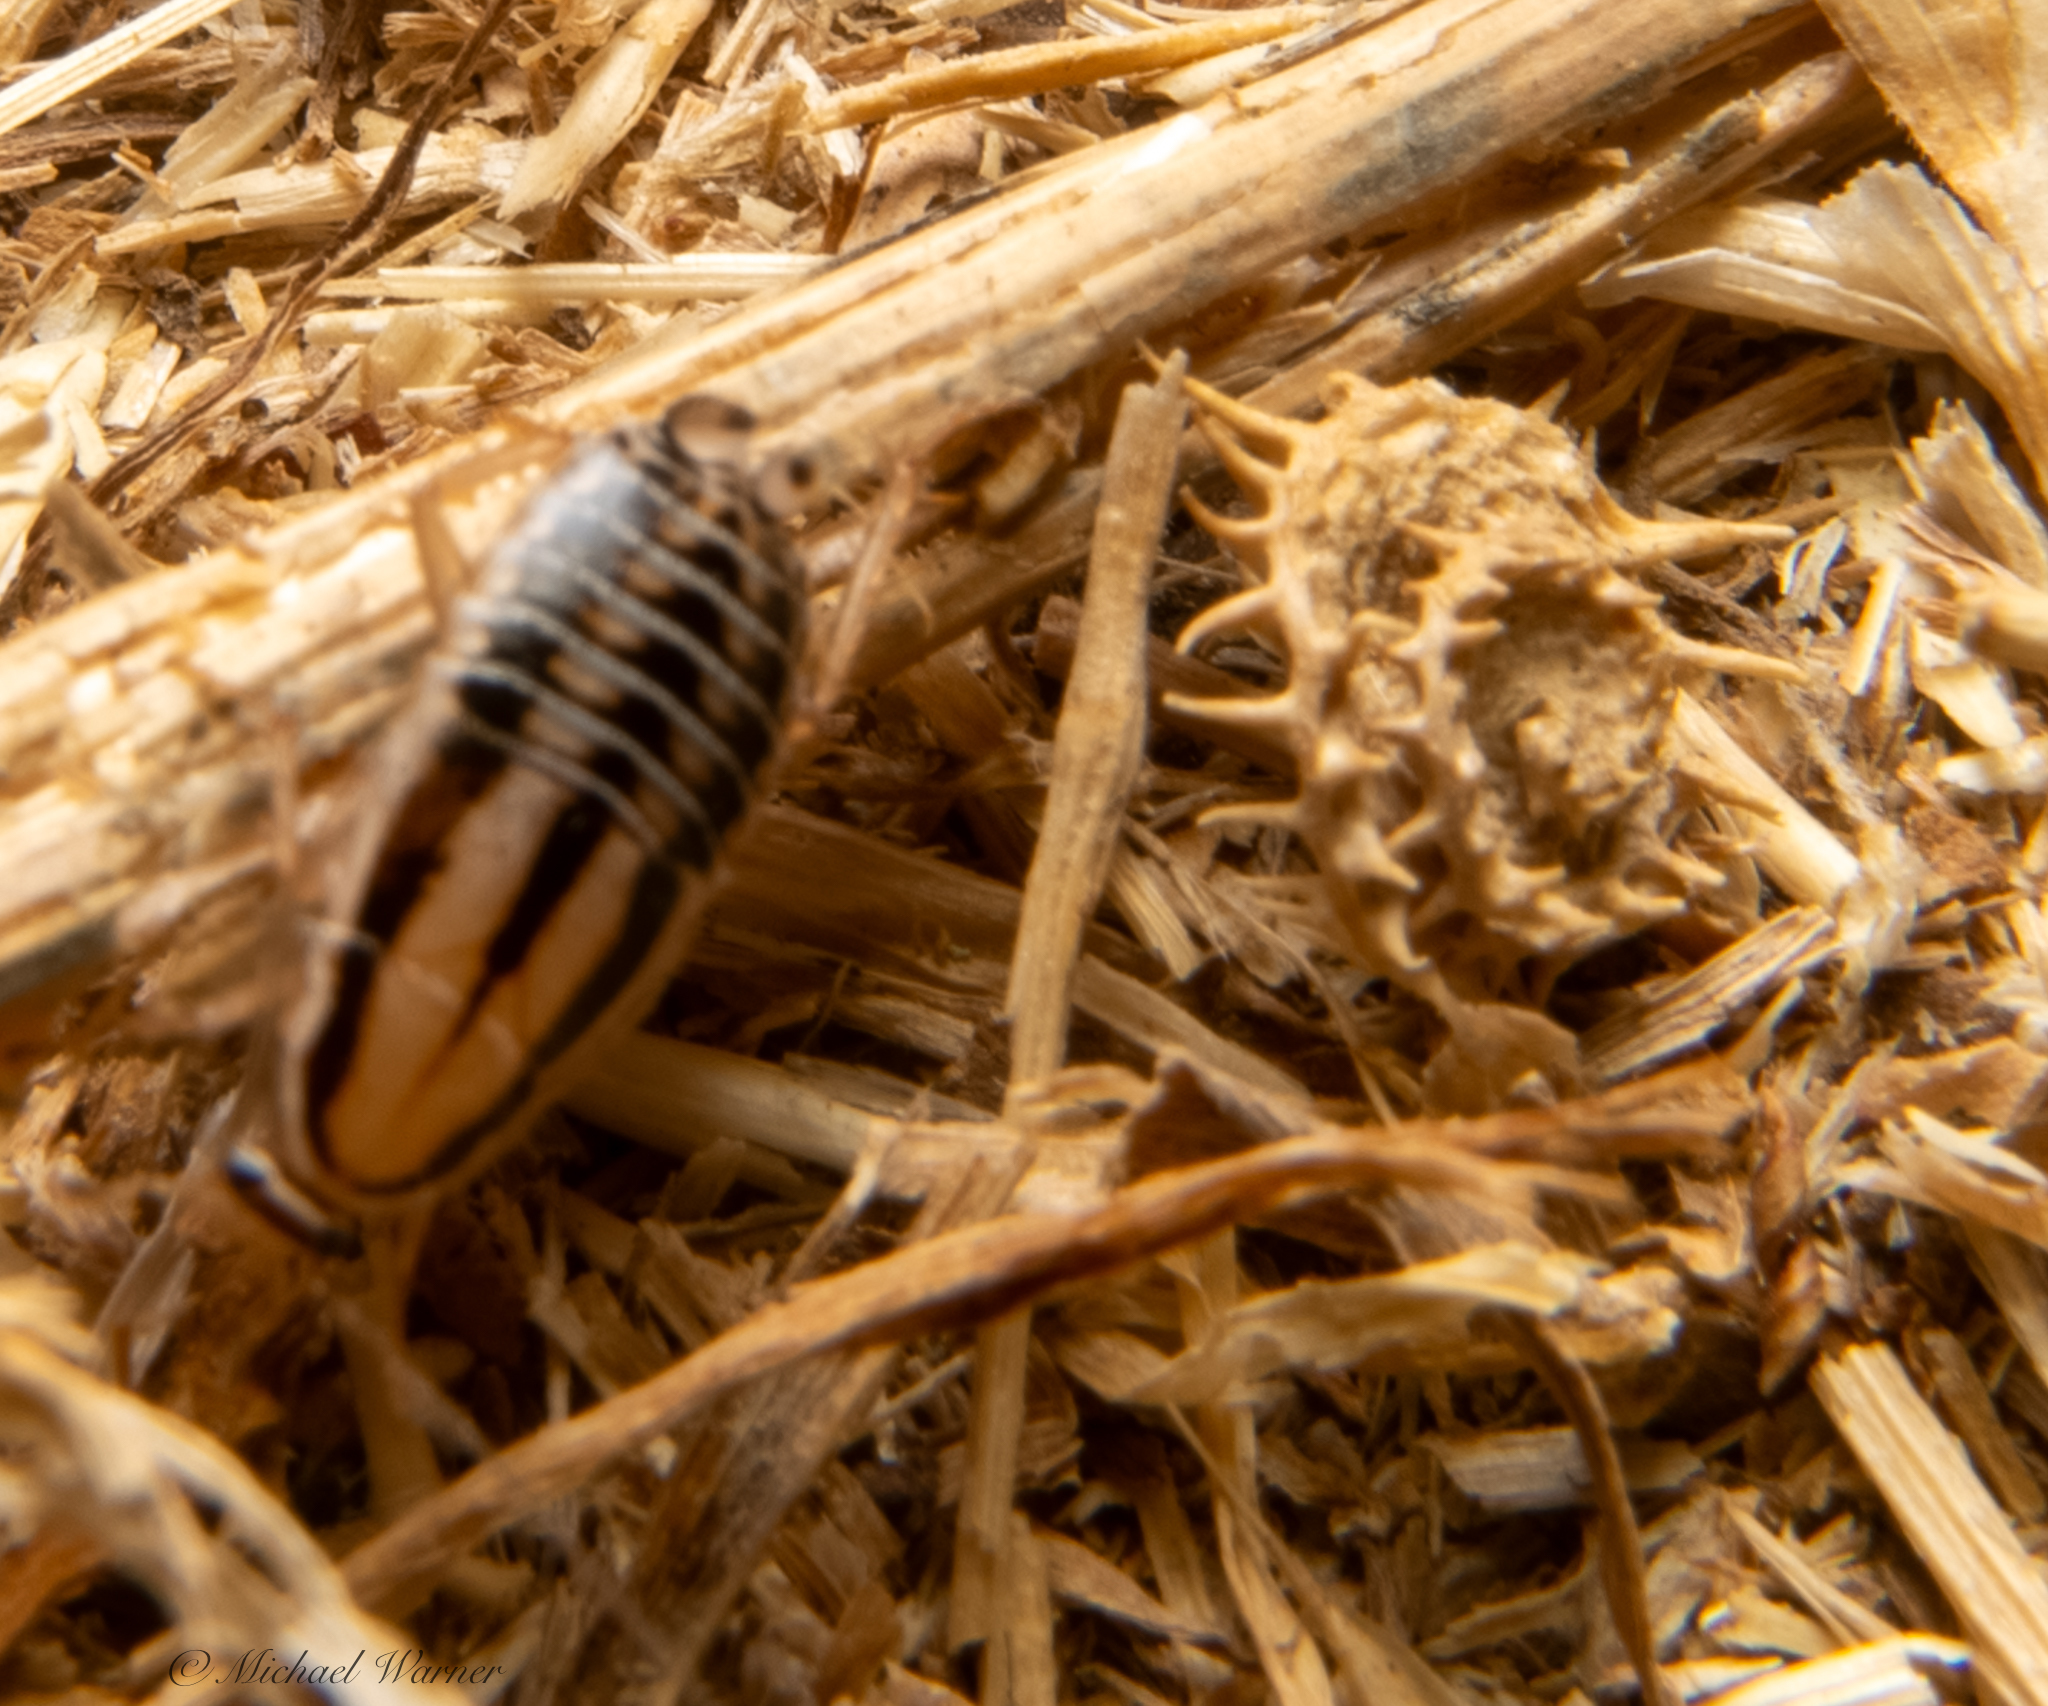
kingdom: Animalia
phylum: Arthropoda
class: Insecta
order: Blattodea
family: Ectobiidae
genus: Luridiblatta
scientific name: Luridiblatta trivittata
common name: Three-lined cockroach
